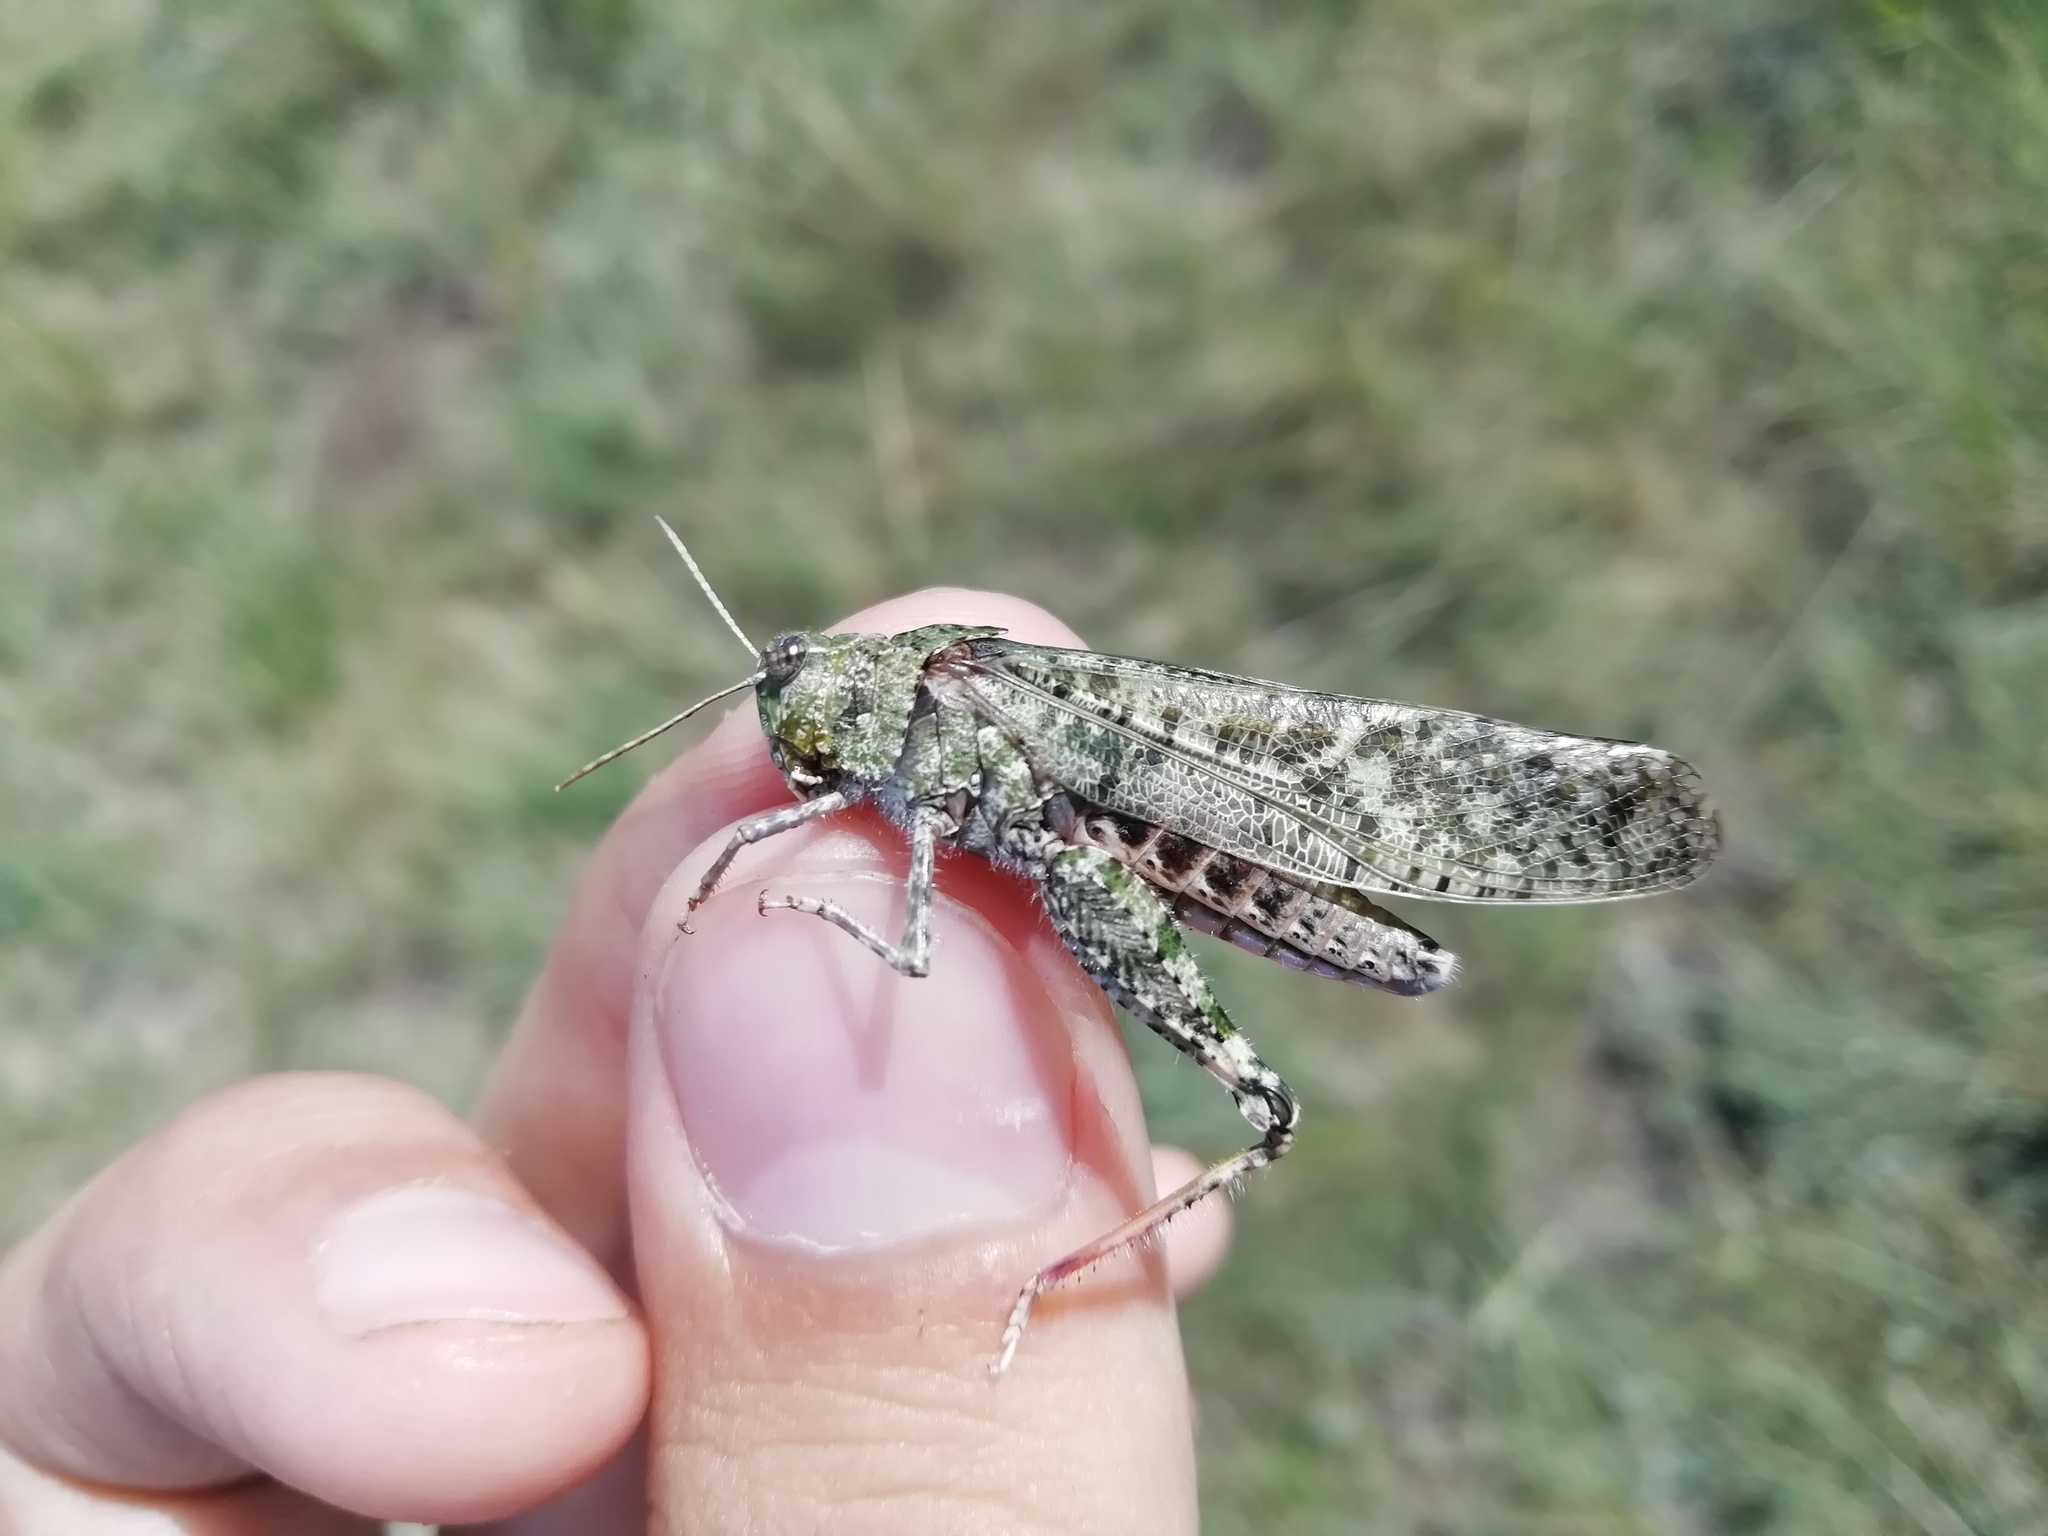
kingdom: Animalia
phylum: Arthropoda
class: Insecta
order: Orthoptera
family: Acrididae
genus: Angaracris
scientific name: Angaracris barabensis
